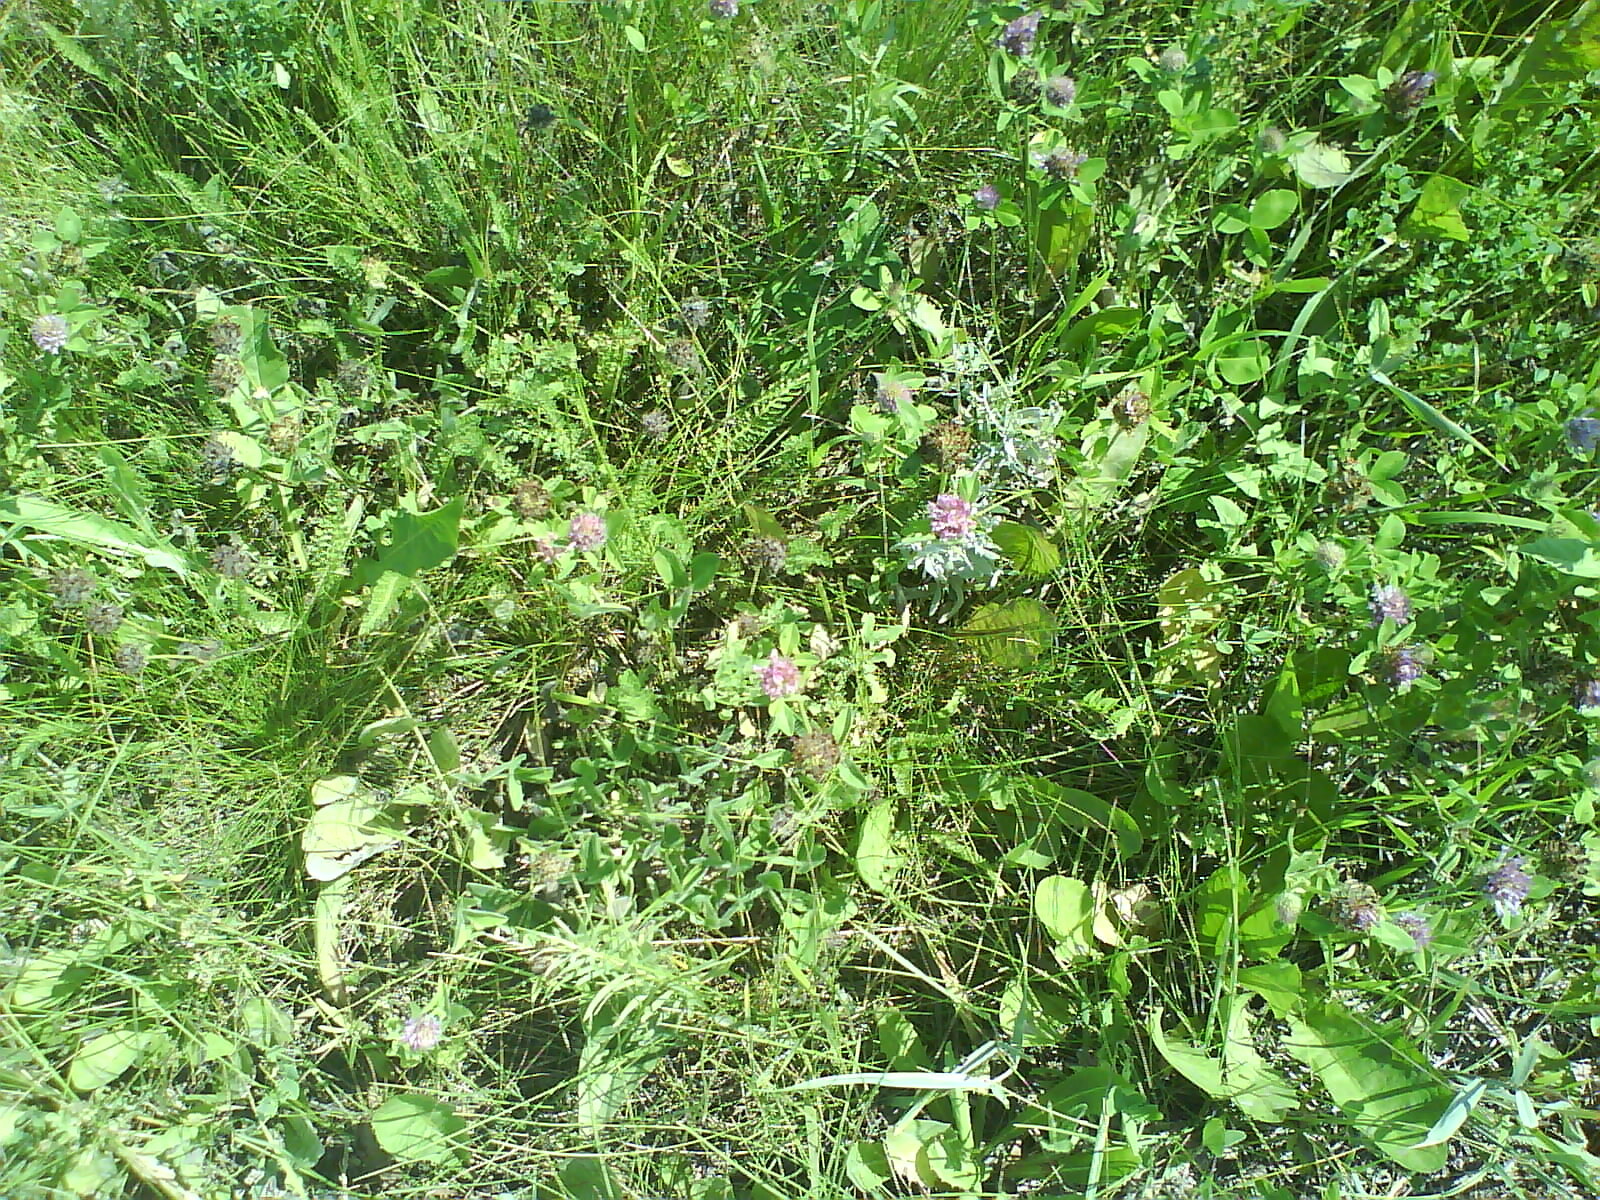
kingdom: Plantae
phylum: Tracheophyta
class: Magnoliopsida
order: Fabales
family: Fabaceae
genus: Trifolium
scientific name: Trifolium pratense
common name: Red clover
